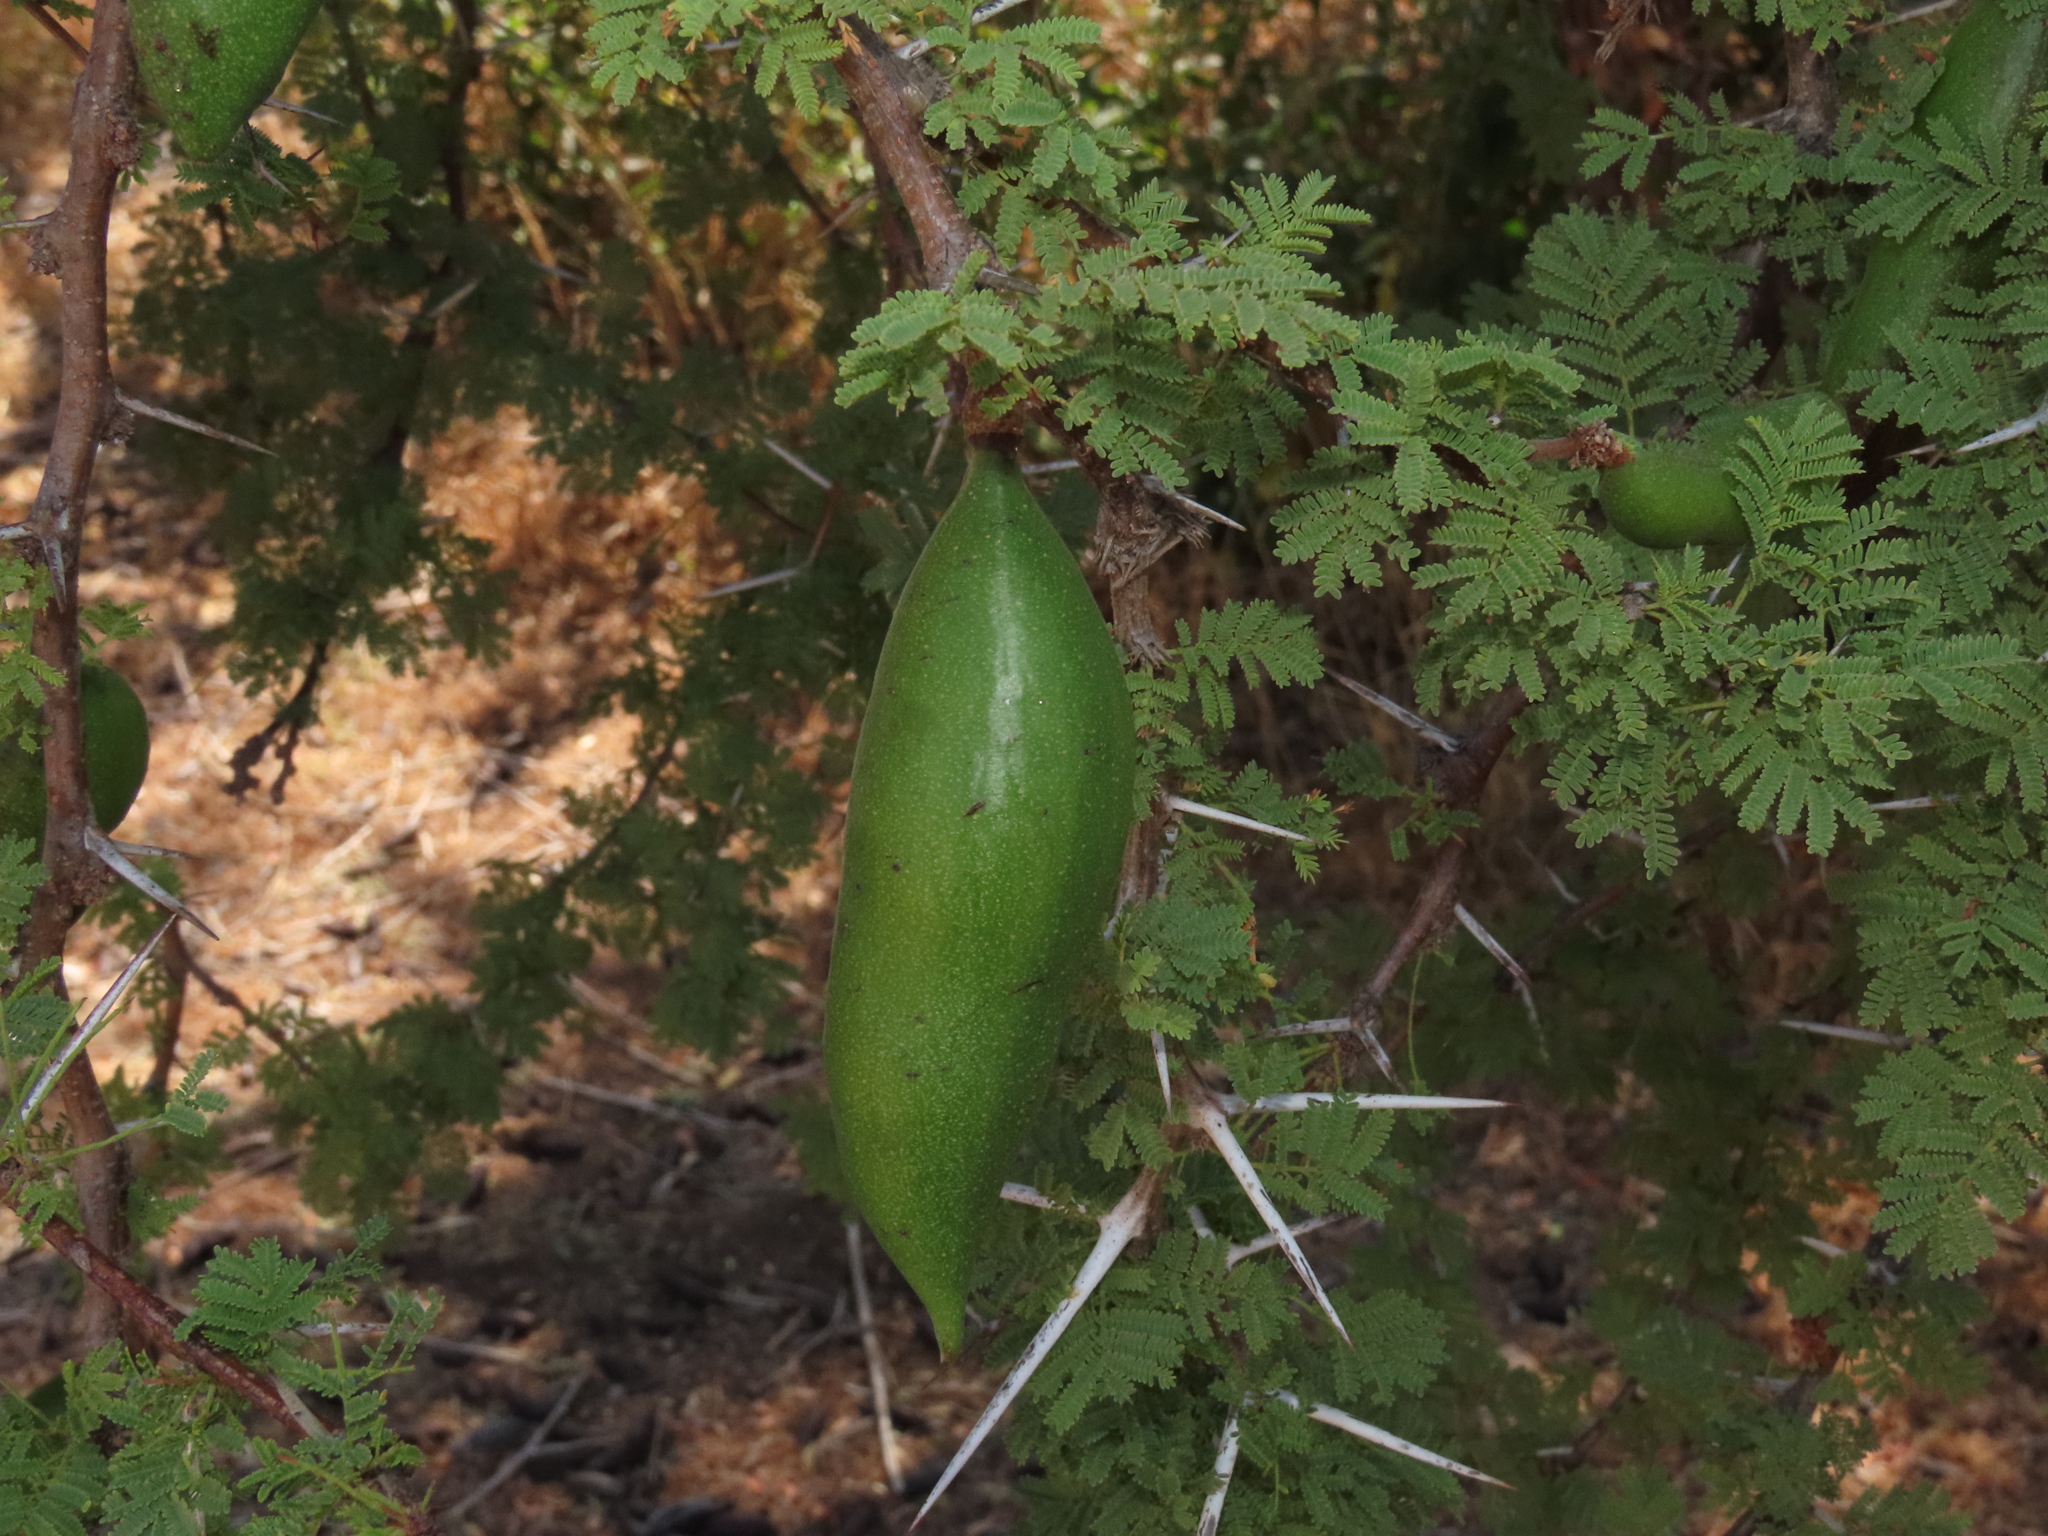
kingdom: Plantae
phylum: Tracheophyta
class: Magnoliopsida
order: Fabales
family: Fabaceae
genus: Vachellia
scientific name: Vachellia caven
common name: Roman cassie
